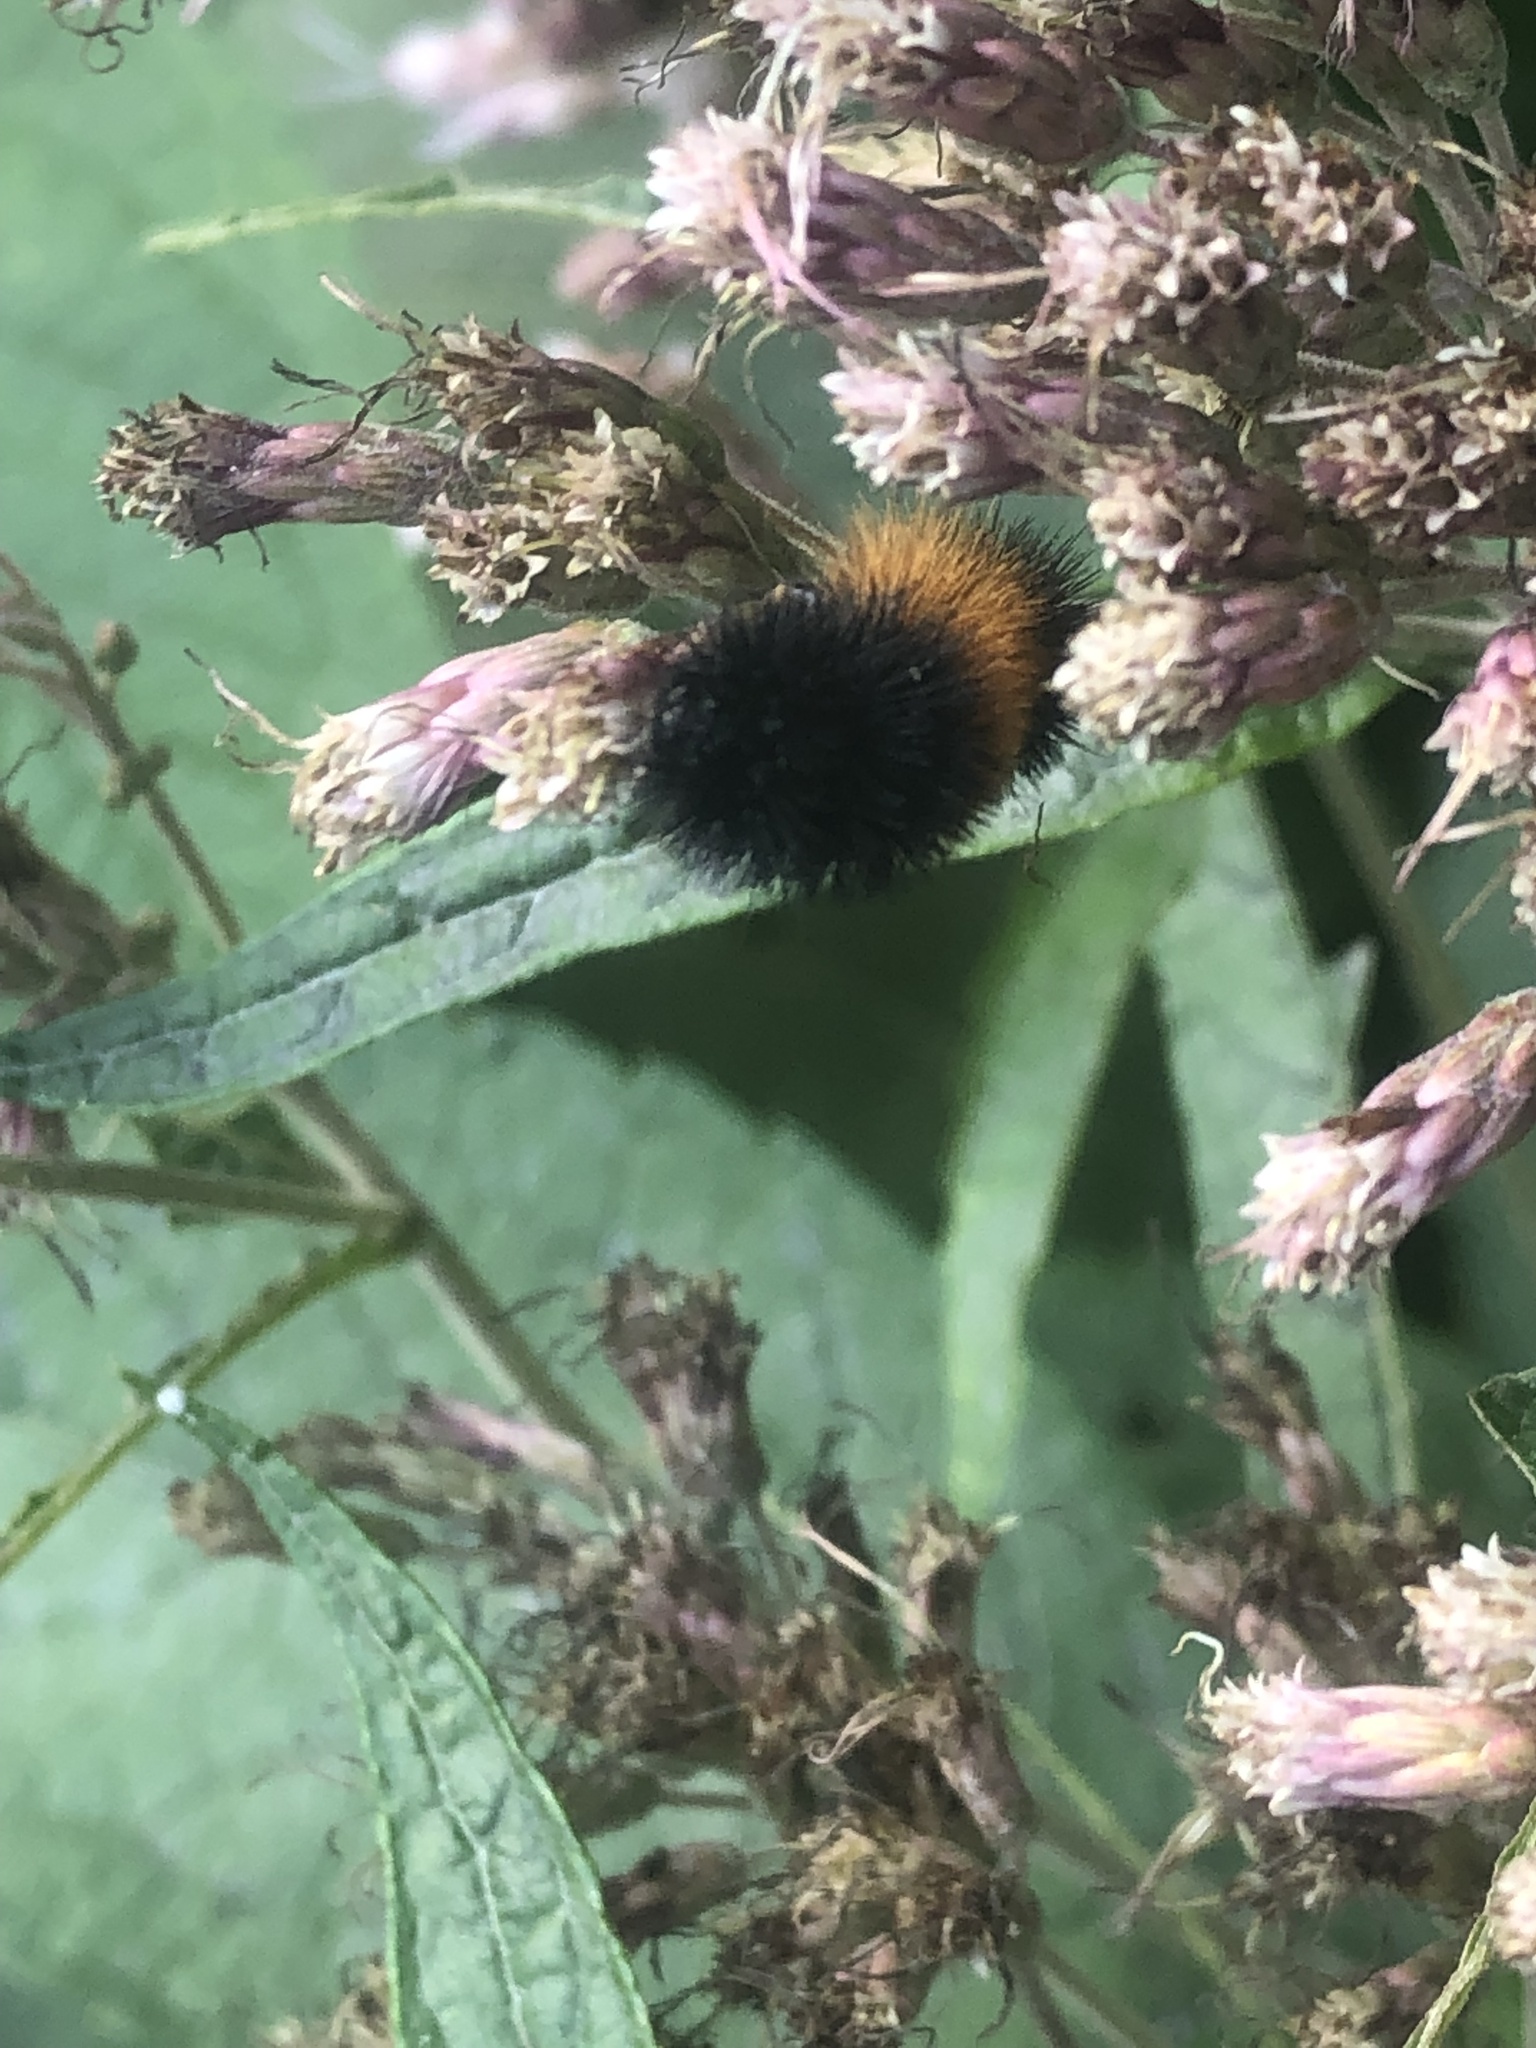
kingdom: Animalia
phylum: Arthropoda
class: Insecta
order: Lepidoptera
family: Erebidae
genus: Pyrrharctia
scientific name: Pyrrharctia isabella
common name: Isabella tiger moth
